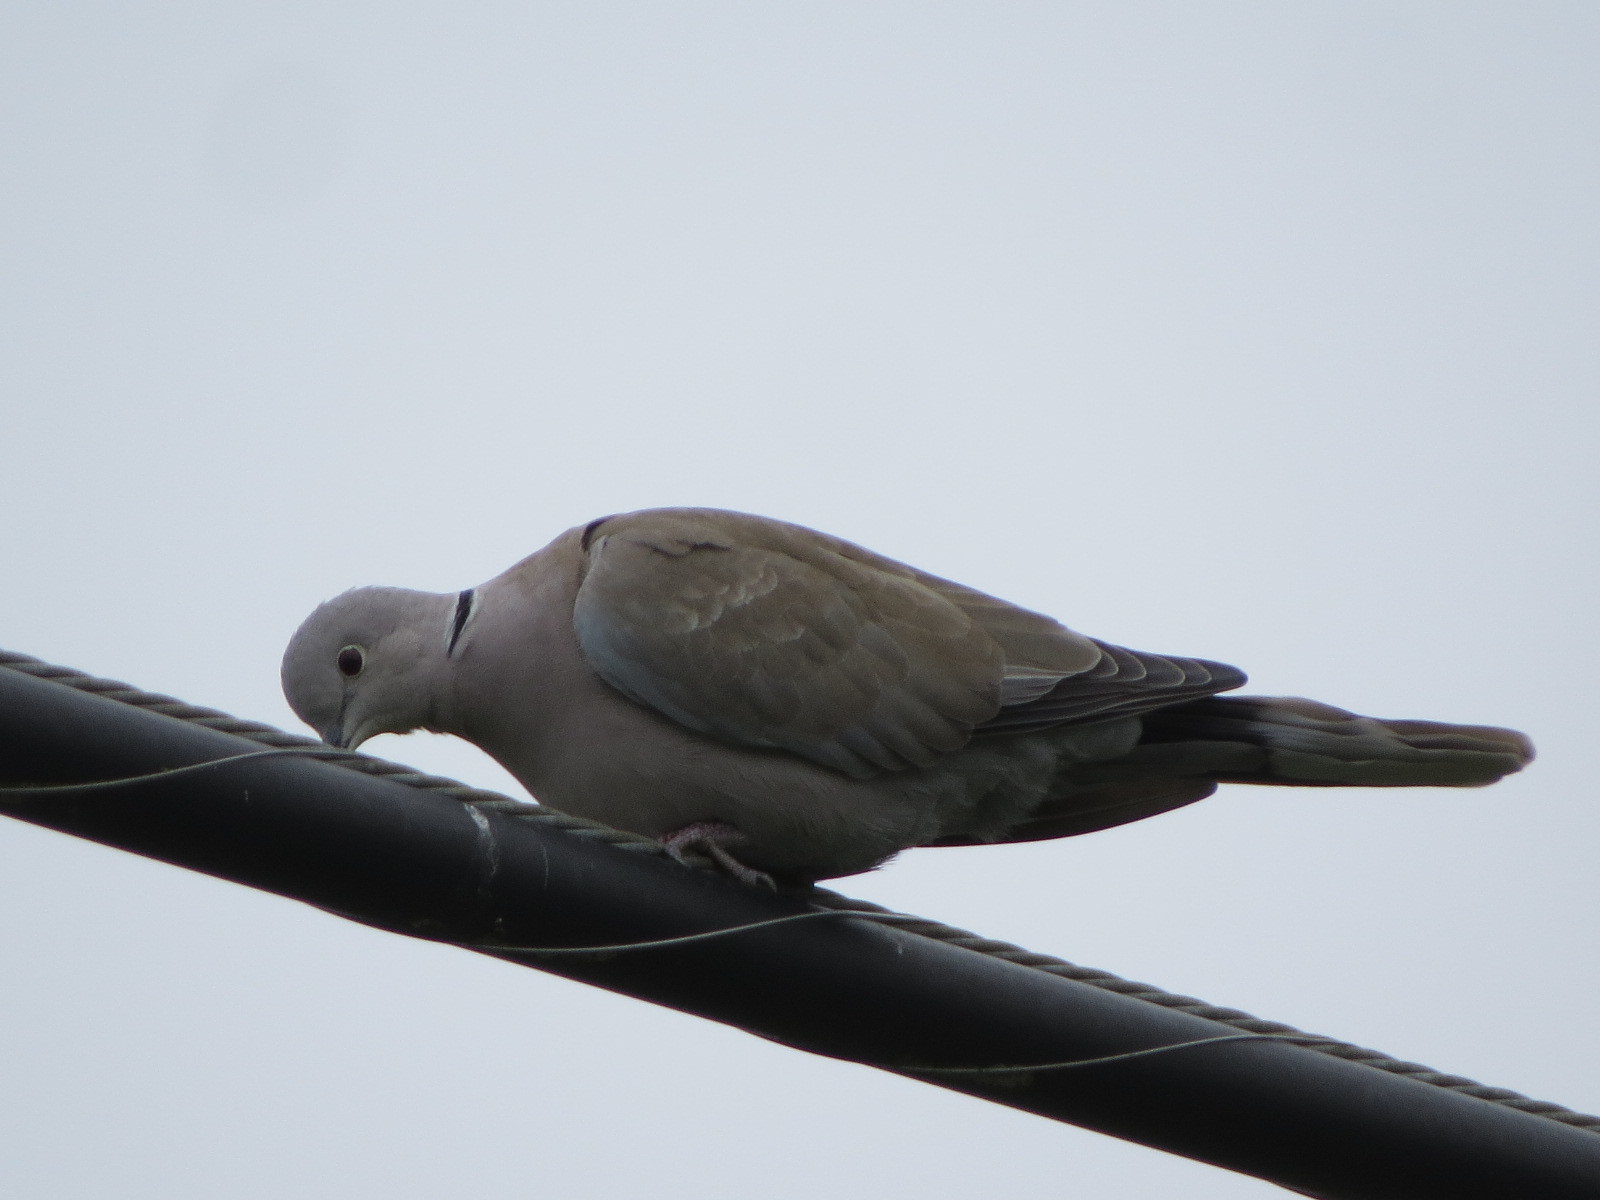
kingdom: Animalia
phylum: Chordata
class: Aves
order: Columbiformes
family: Columbidae
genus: Streptopelia
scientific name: Streptopelia decaocto
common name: Eurasian collared dove
